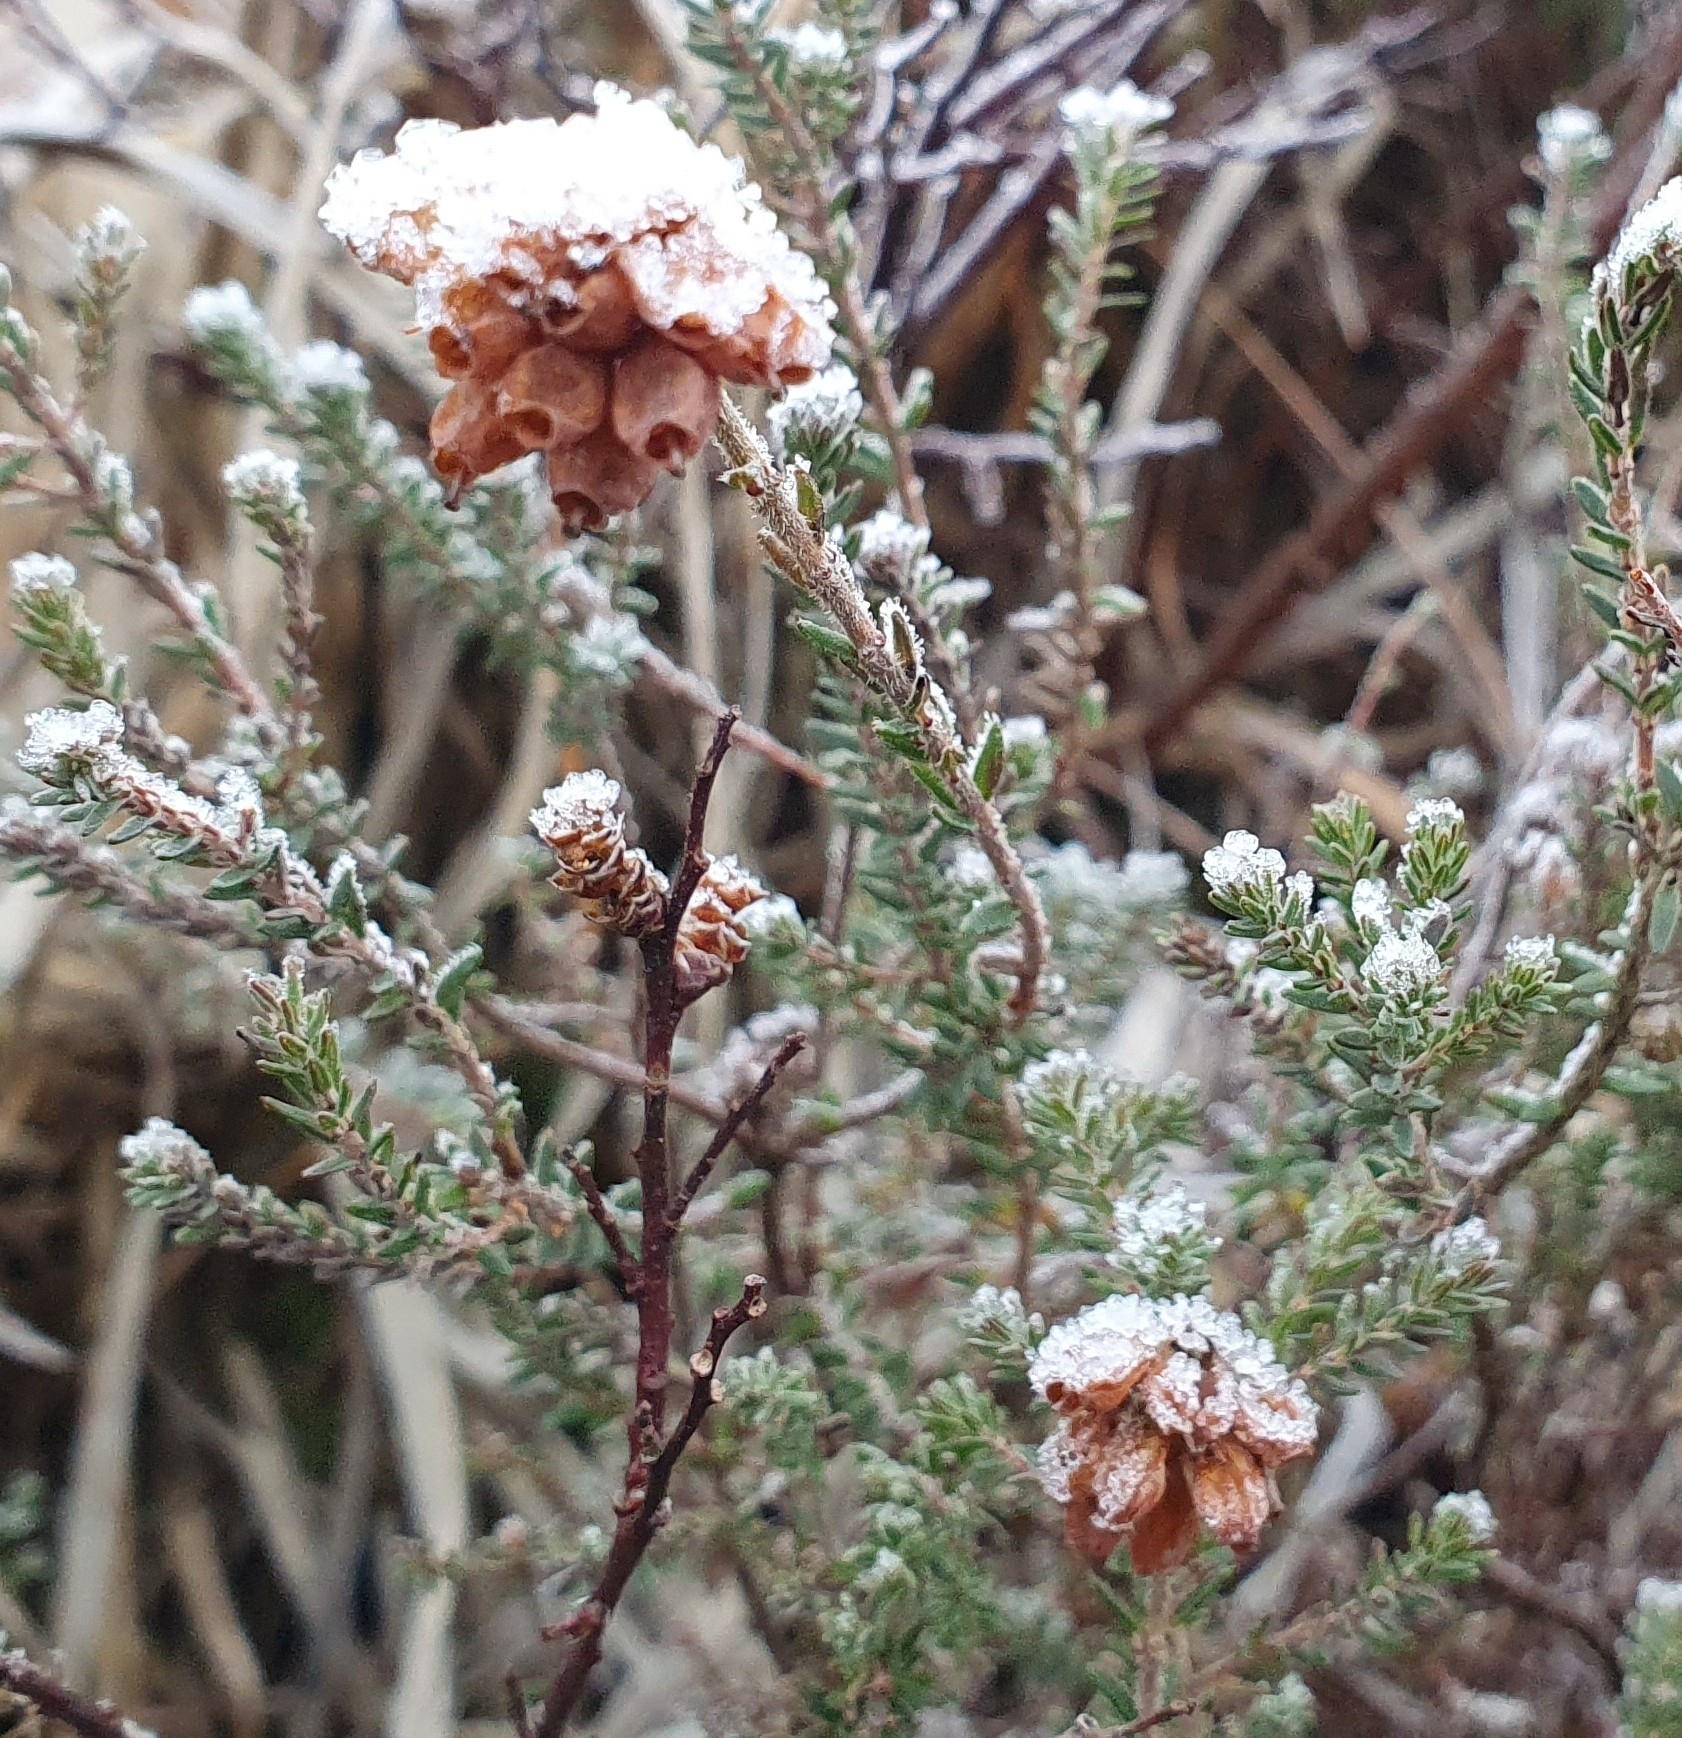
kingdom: Plantae
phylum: Tracheophyta
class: Magnoliopsida
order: Ericales
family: Ericaceae
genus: Erica
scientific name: Erica tetralix
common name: Cross-leaved heath
